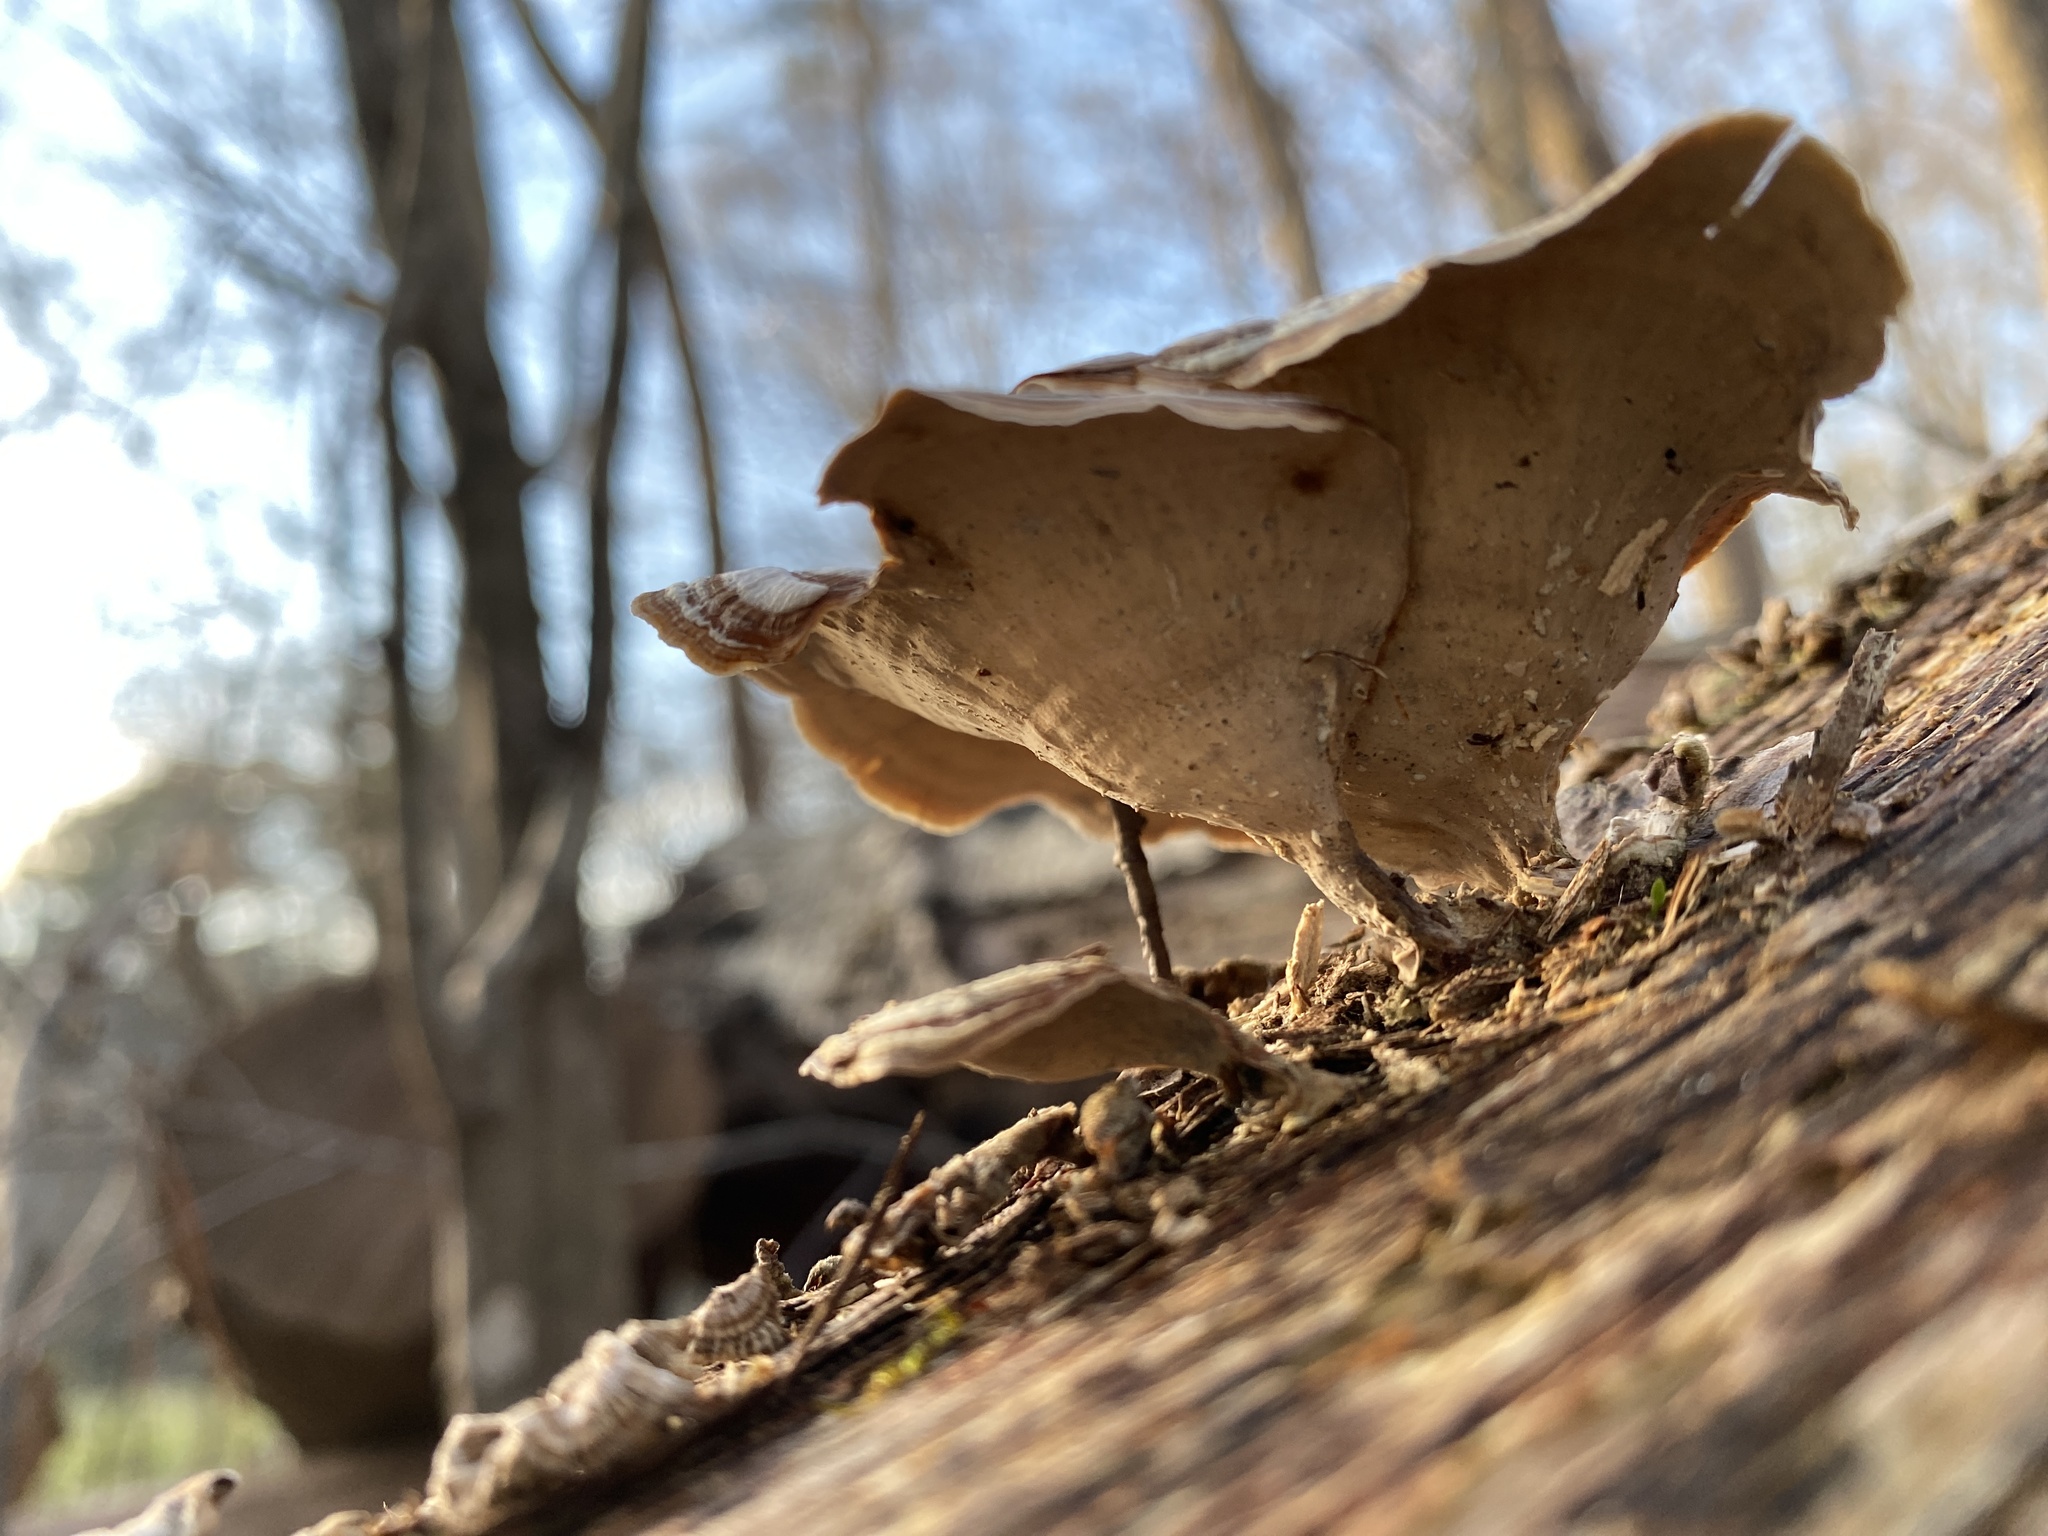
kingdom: Fungi
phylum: Basidiomycota
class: Agaricomycetes
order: Russulales
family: Stereaceae
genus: Stereum
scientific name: Stereum lobatum
